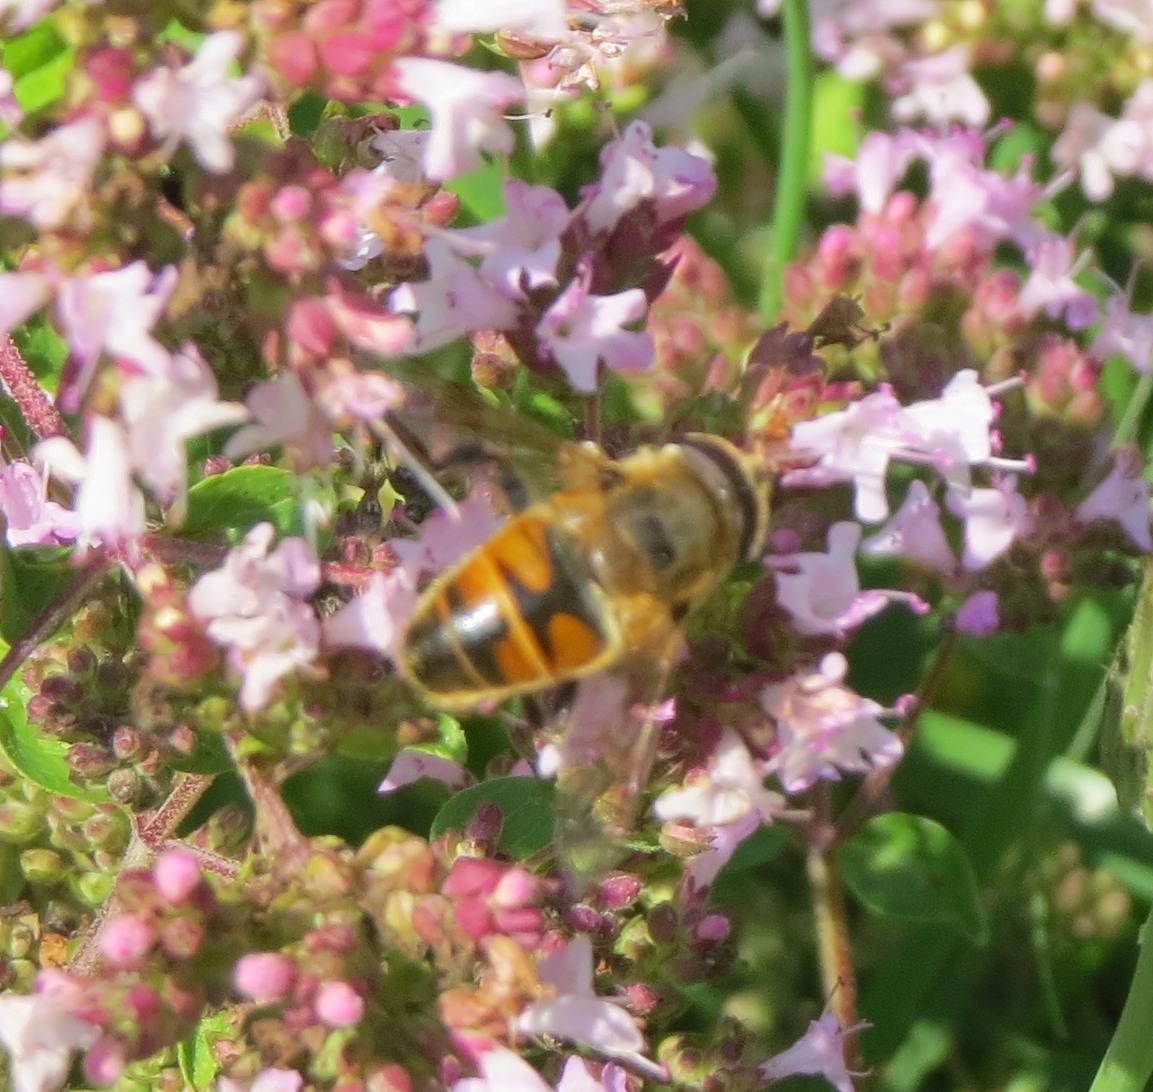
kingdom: Animalia
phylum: Arthropoda
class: Insecta
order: Diptera
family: Syrphidae
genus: Eristalis
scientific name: Eristalis tenax
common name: Drone fly
